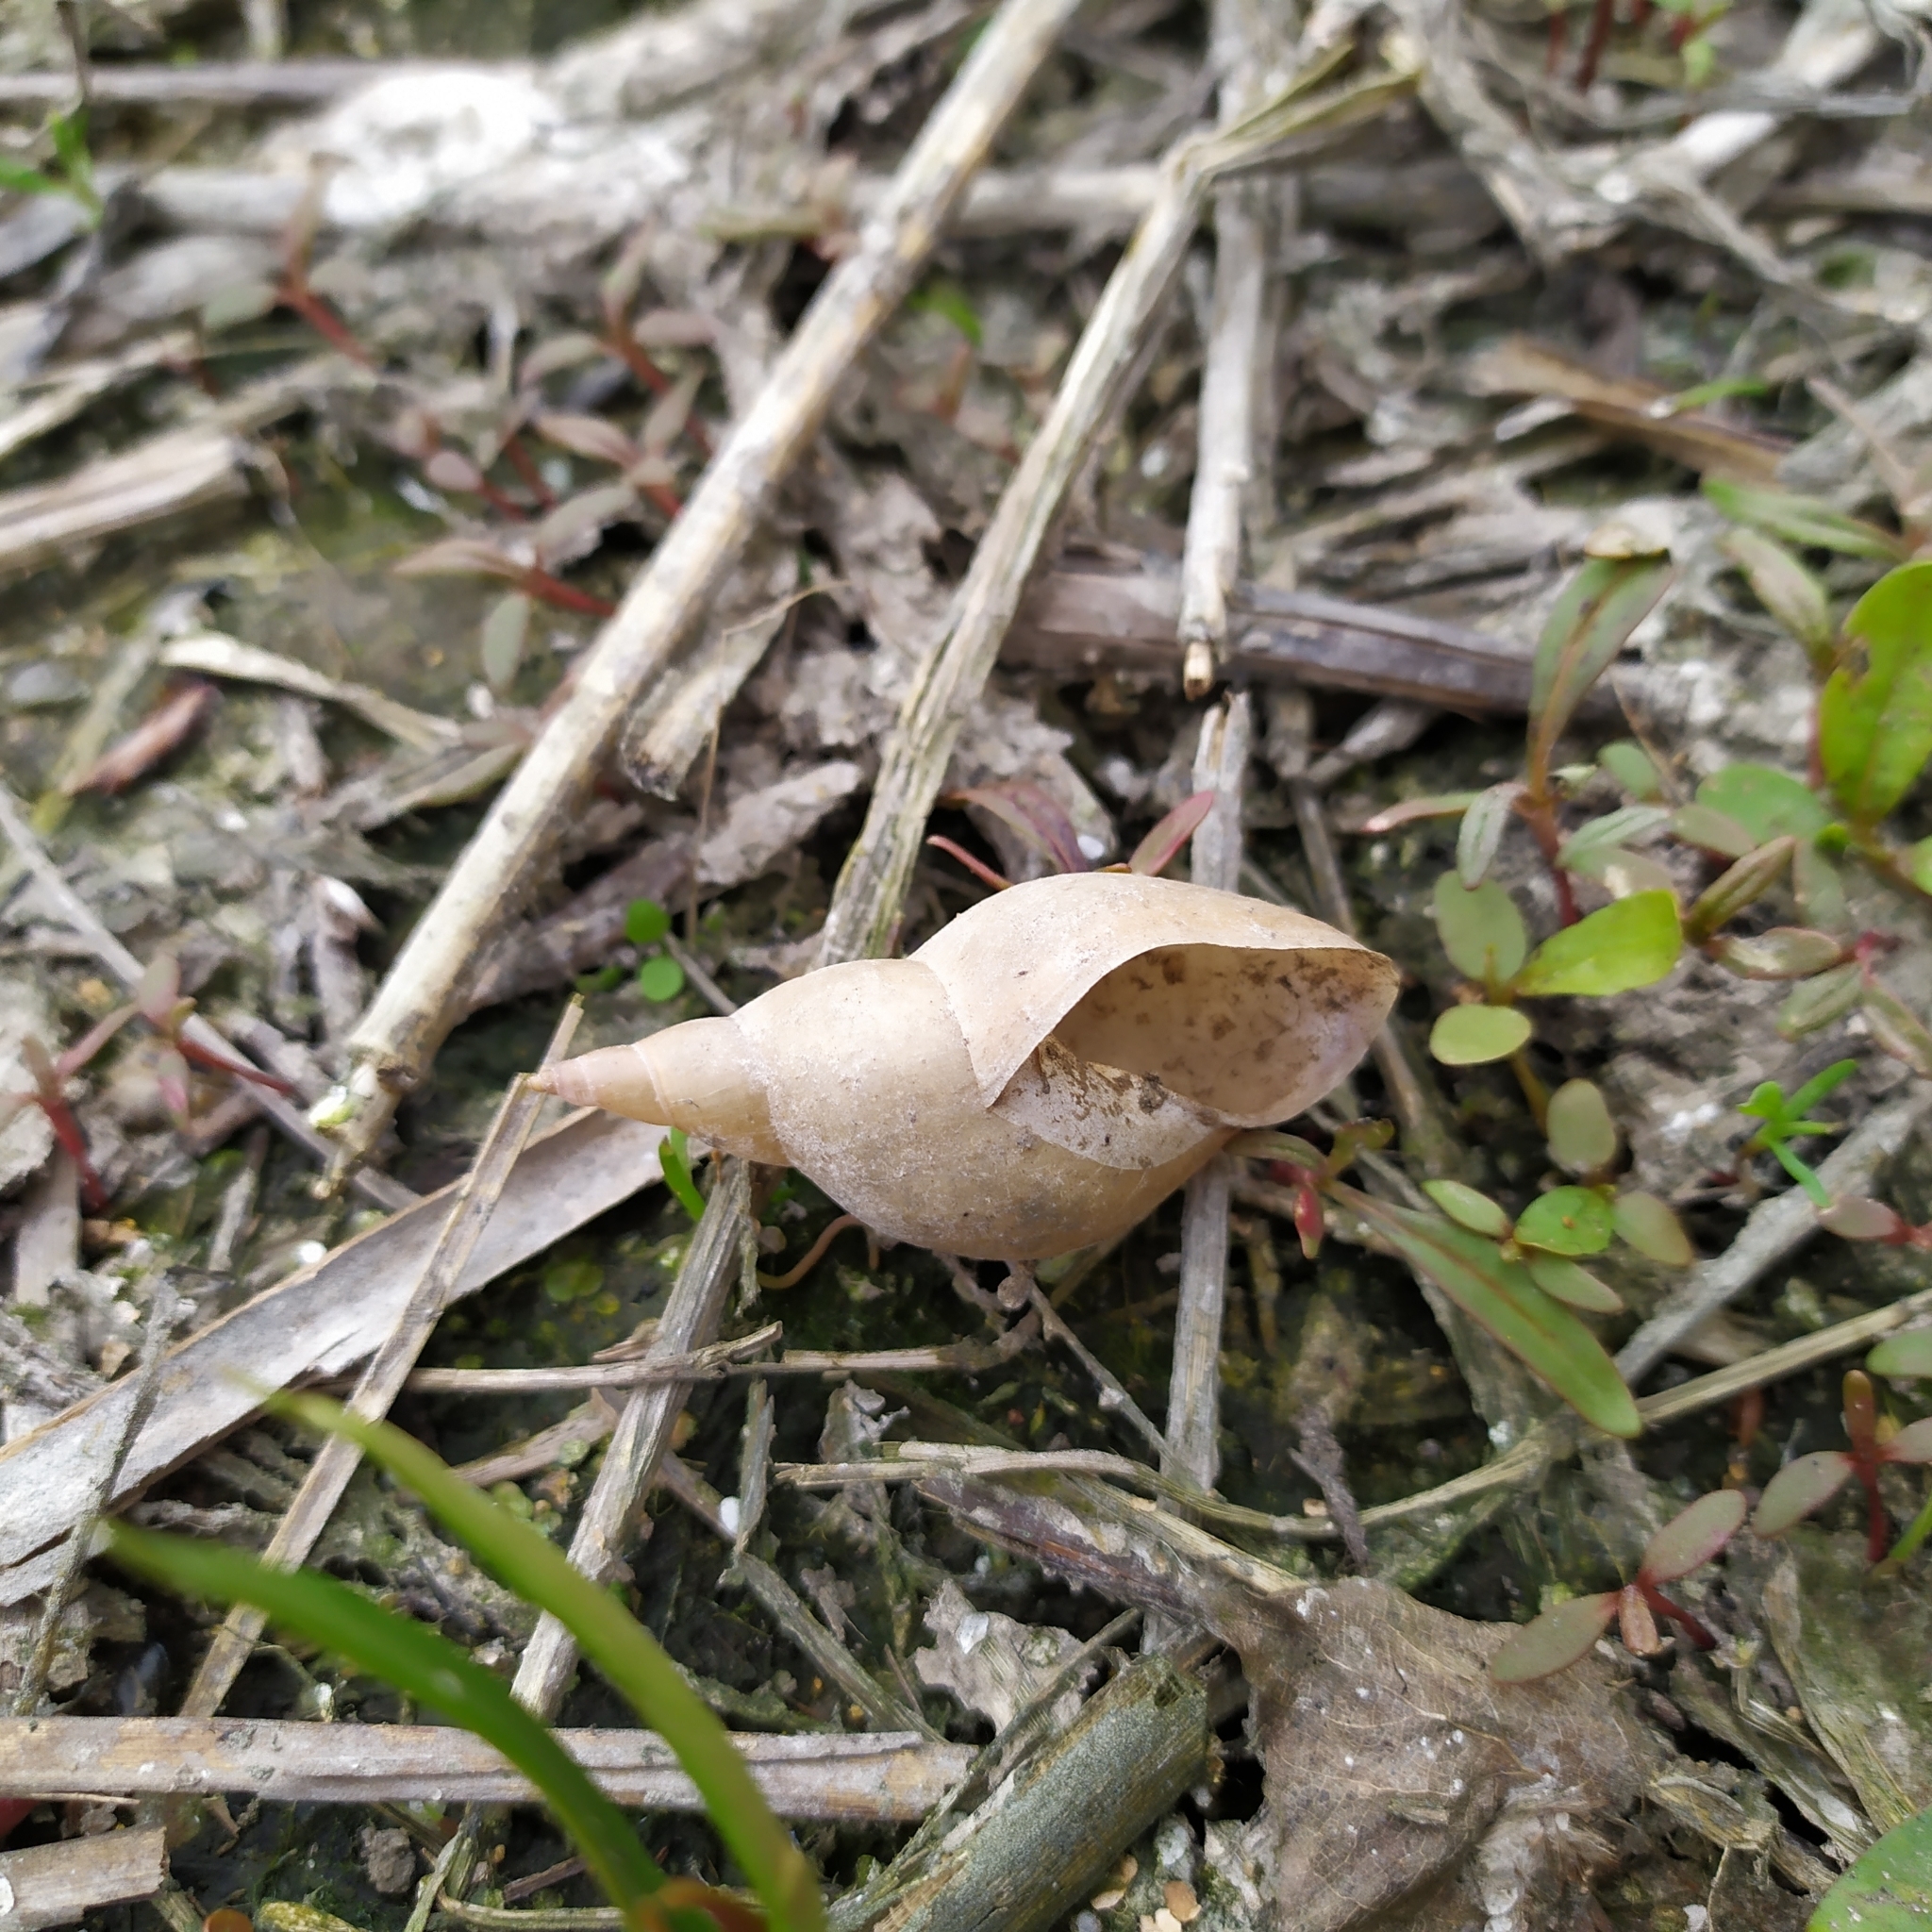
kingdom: Animalia
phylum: Mollusca
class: Gastropoda
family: Lymnaeidae
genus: Lymnaea
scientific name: Lymnaea stagnalis
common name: Great pond snail
